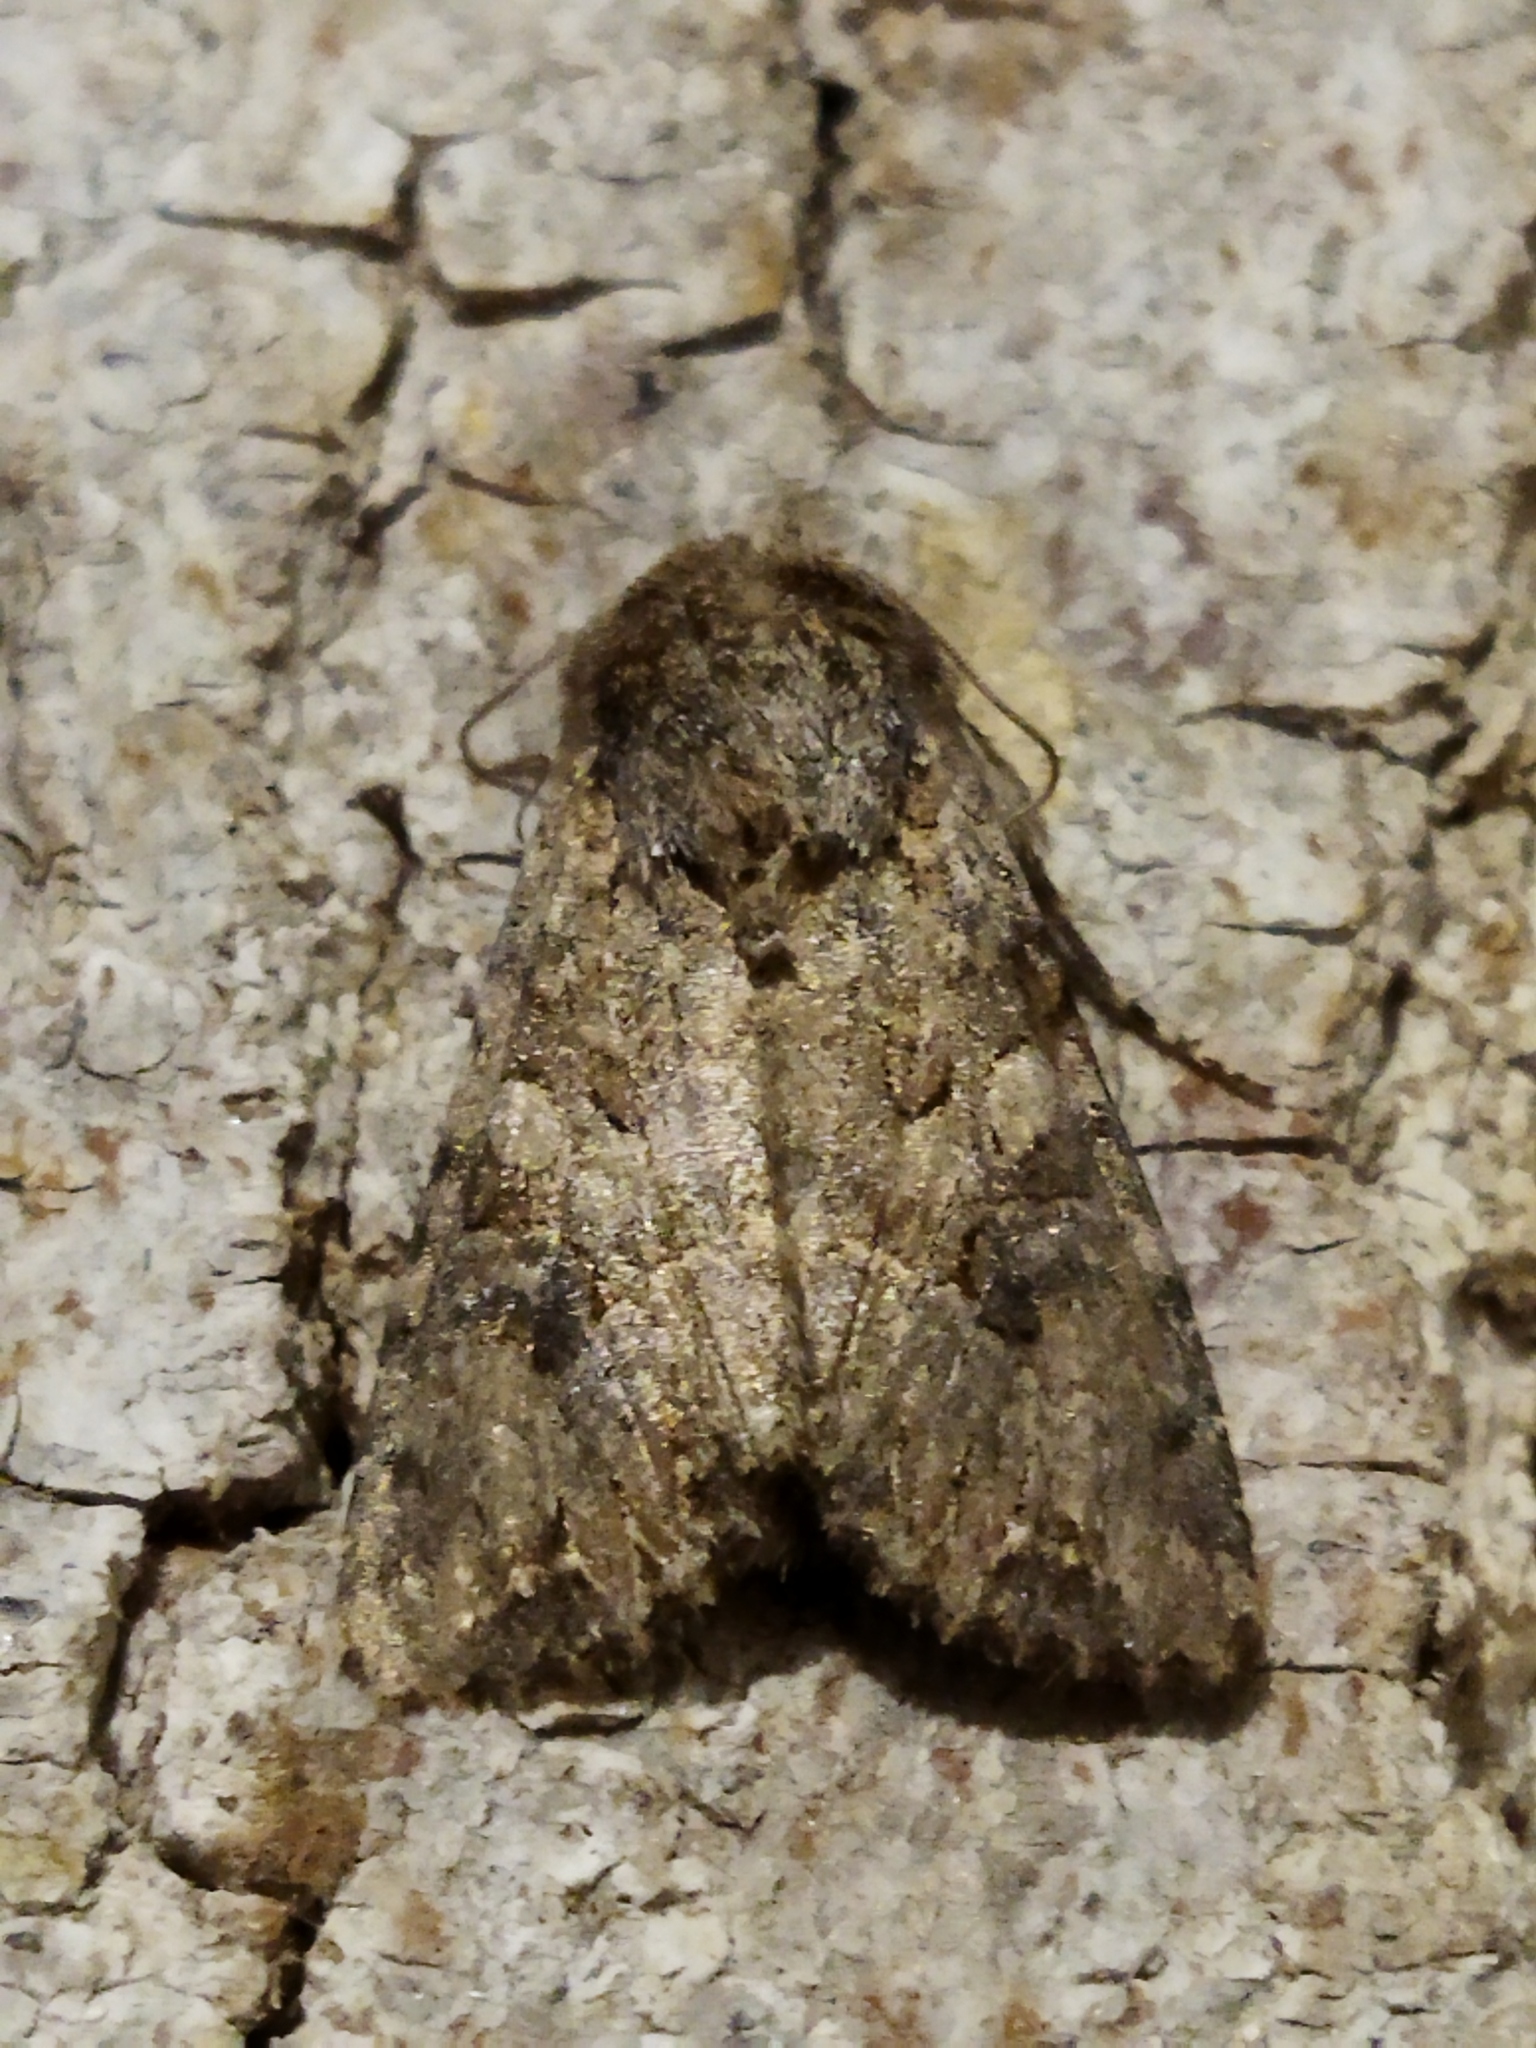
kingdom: Animalia
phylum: Arthropoda
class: Insecta
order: Lepidoptera
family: Noctuidae
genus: Anarta
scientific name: Anarta trifolii
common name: Clover cutworm moth
